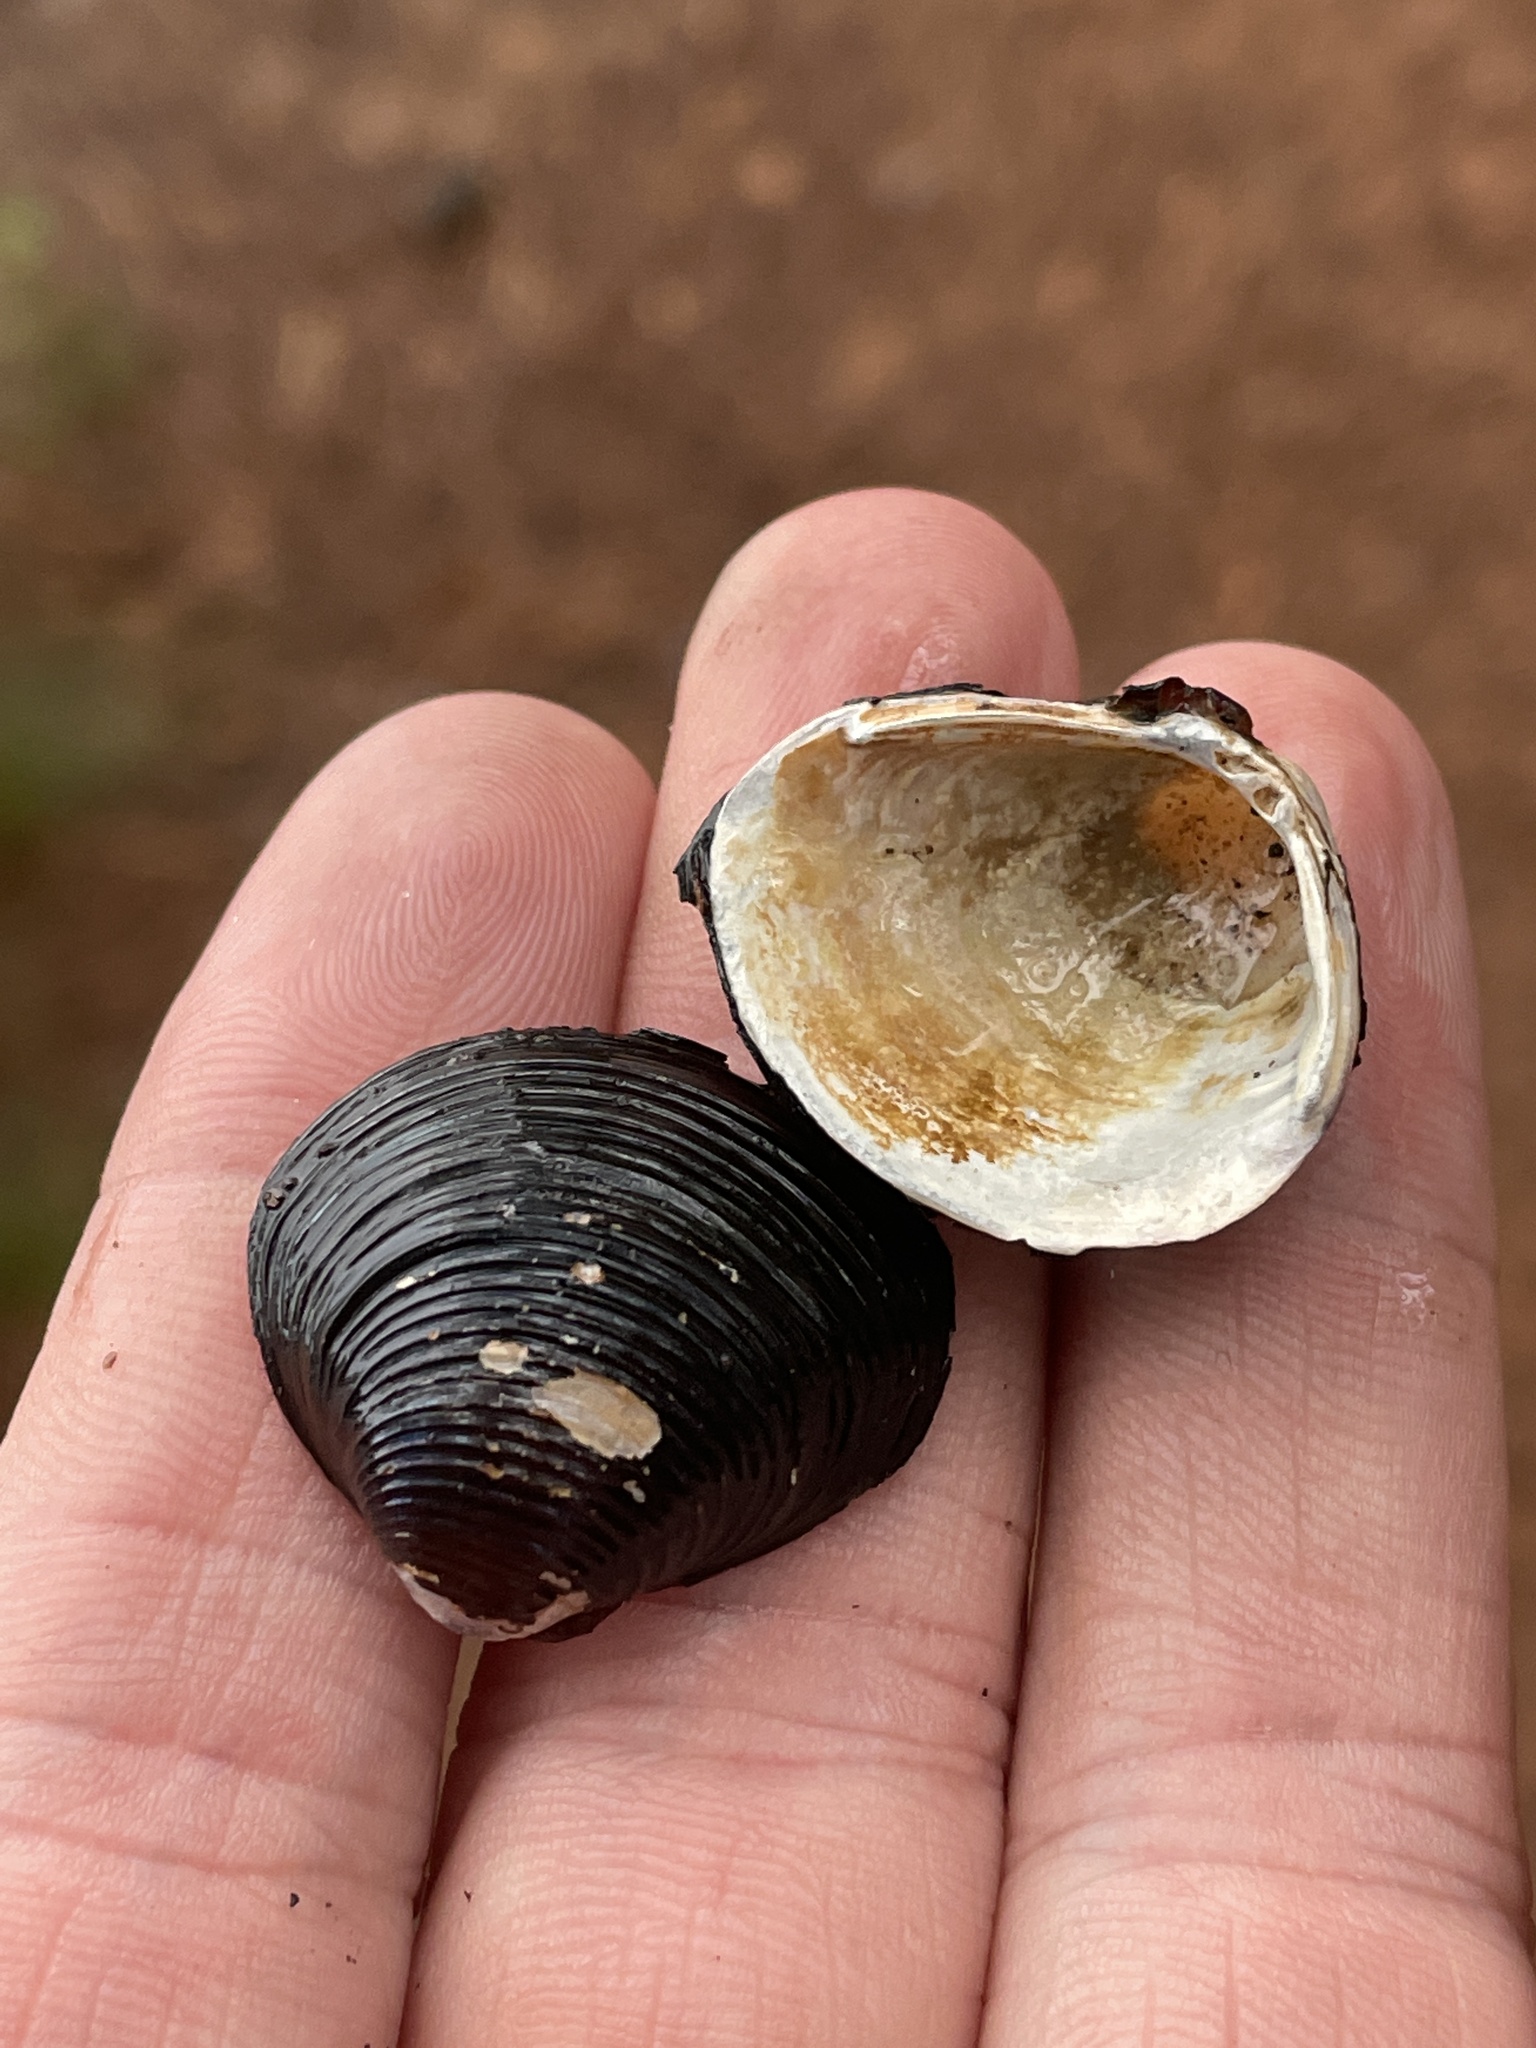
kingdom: Animalia
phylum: Mollusca
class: Bivalvia
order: Venerida
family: Cyrenidae
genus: Corbicula
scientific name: Corbicula fluminea
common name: Asian clam
